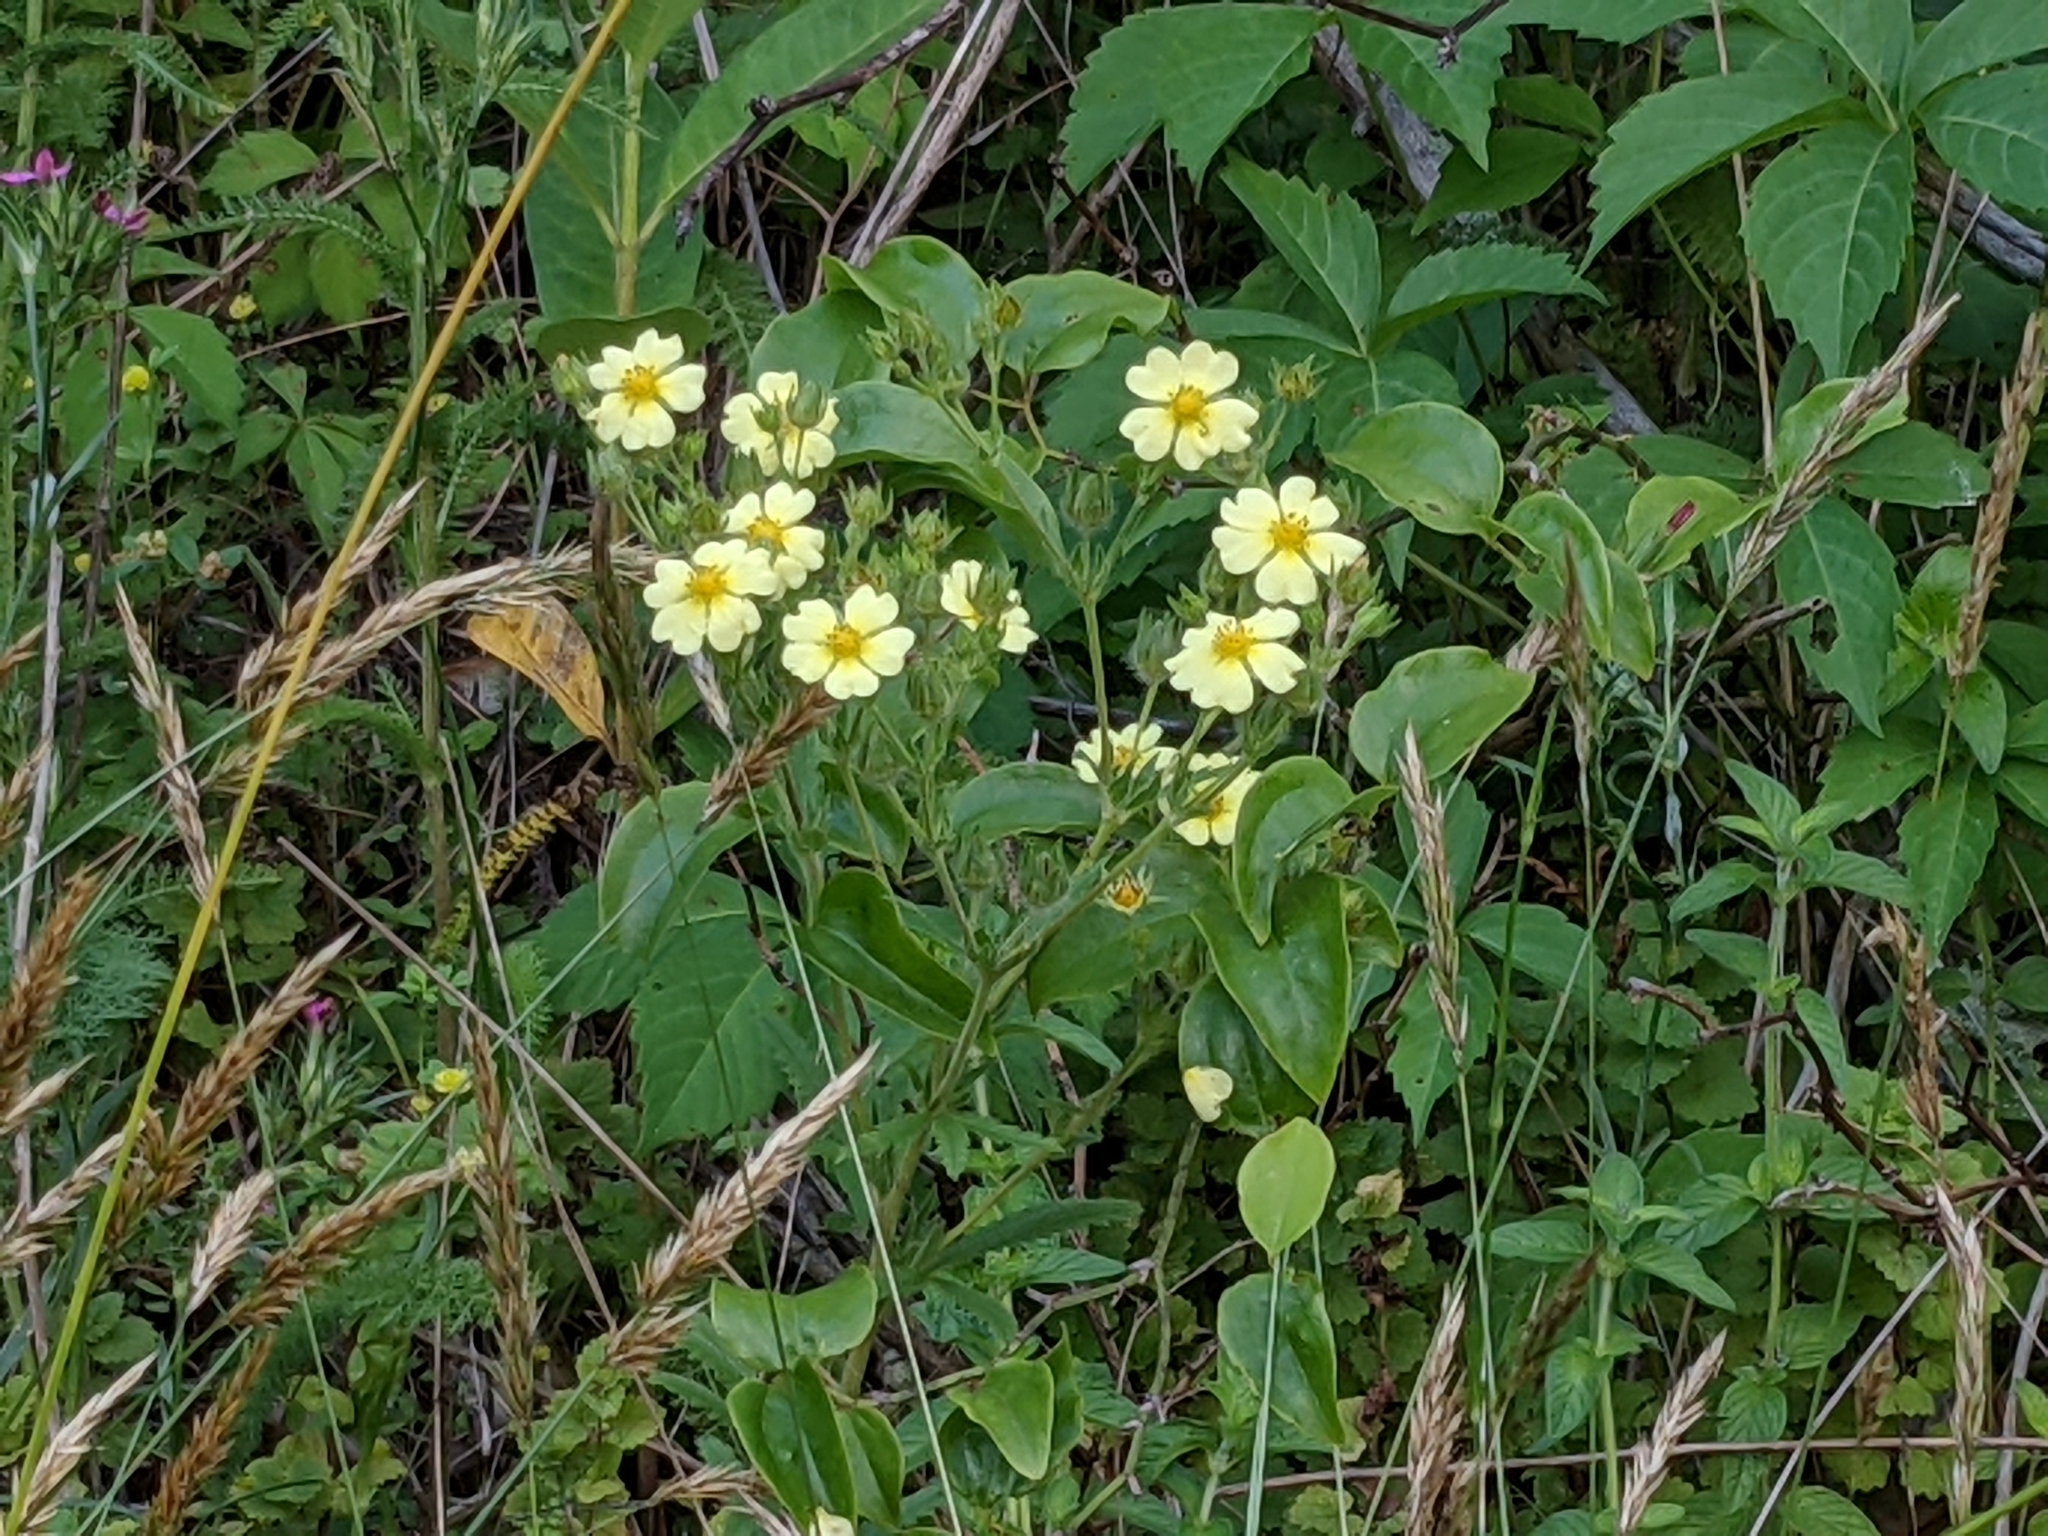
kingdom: Plantae
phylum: Tracheophyta
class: Magnoliopsida
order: Rosales
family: Rosaceae
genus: Potentilla
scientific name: Potentilla recta
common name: Sulphur cinquefoil
